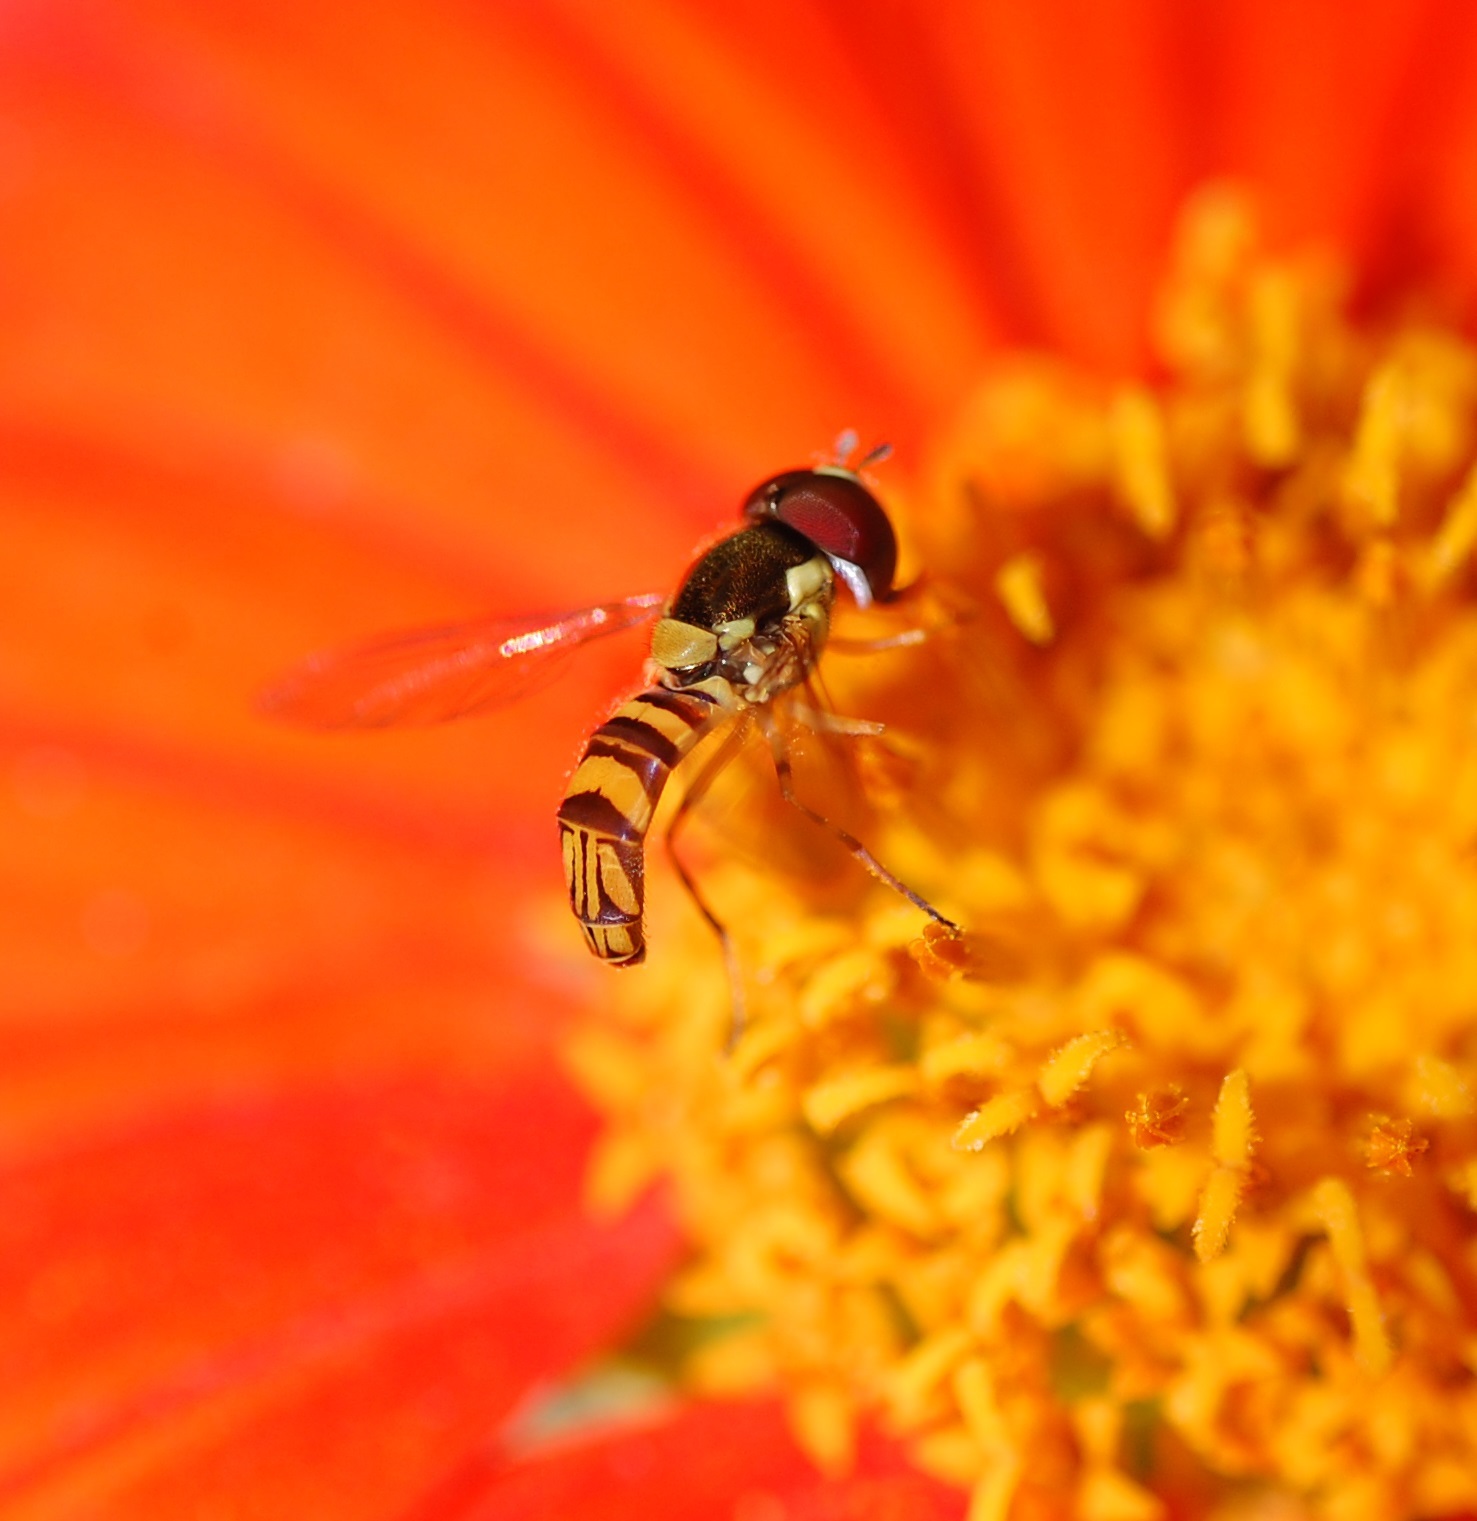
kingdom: Animalia
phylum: Arthropoda
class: Insecta
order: Diptera
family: Syrphidae
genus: Allograpta
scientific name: Allograpta obliqua
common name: Common oblique syrphid
